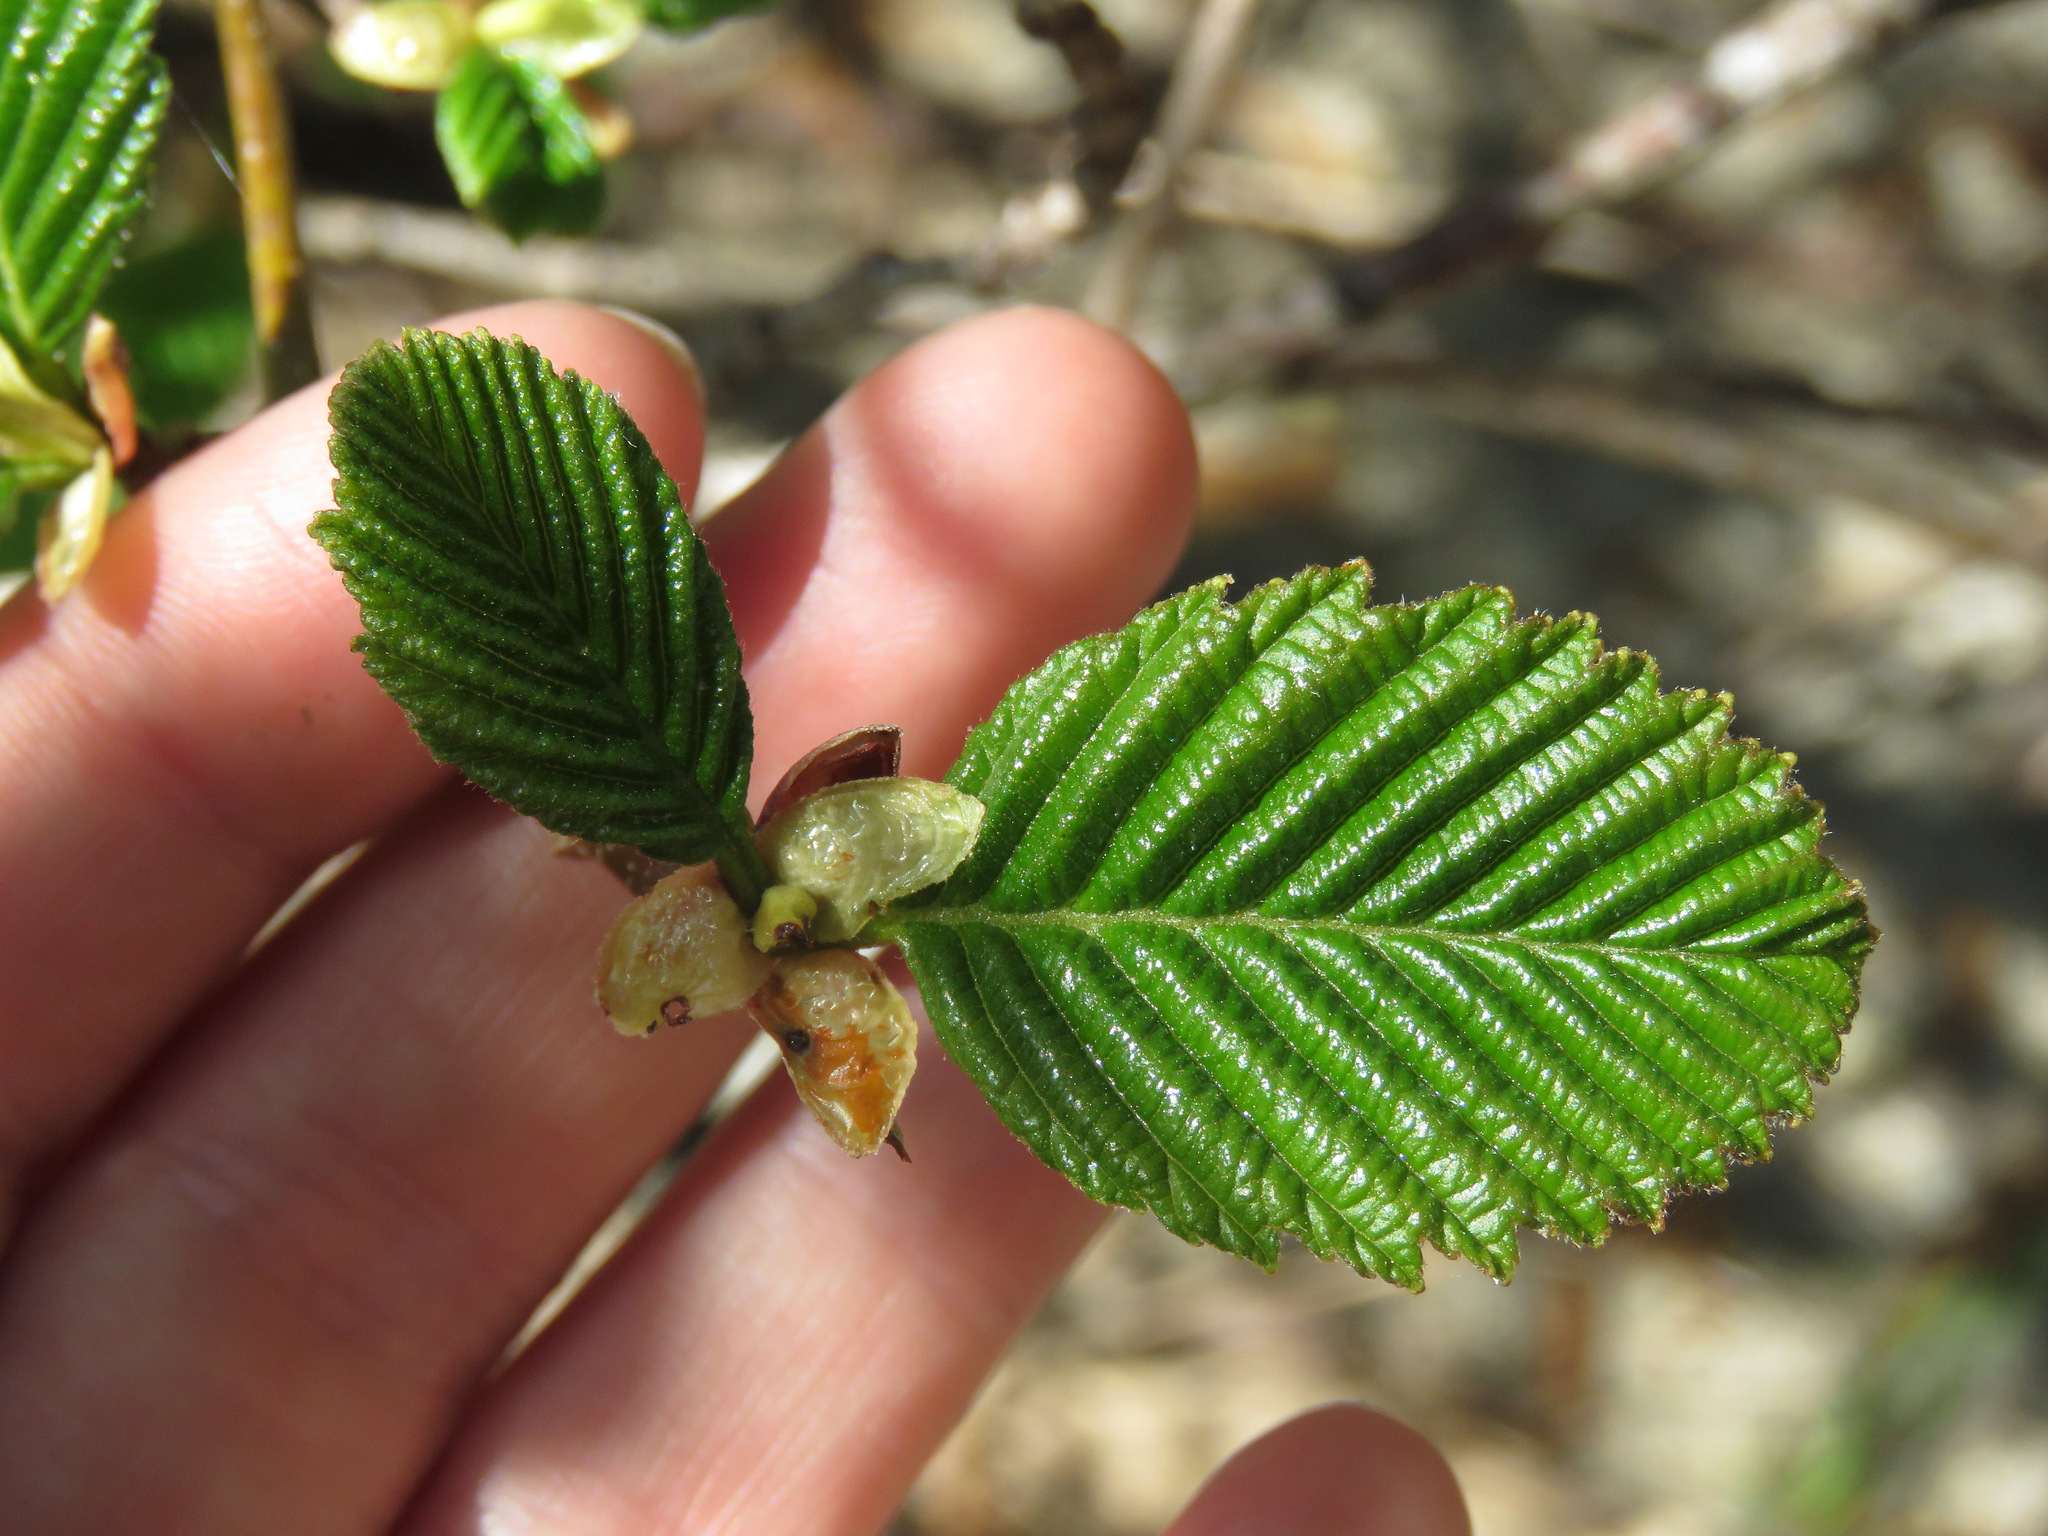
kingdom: Plantae
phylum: Tracheophyta
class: Magnoliopsida
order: Fagales
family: Betulaceae
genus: Alnus
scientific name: Alnus rubra
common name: Red alder
